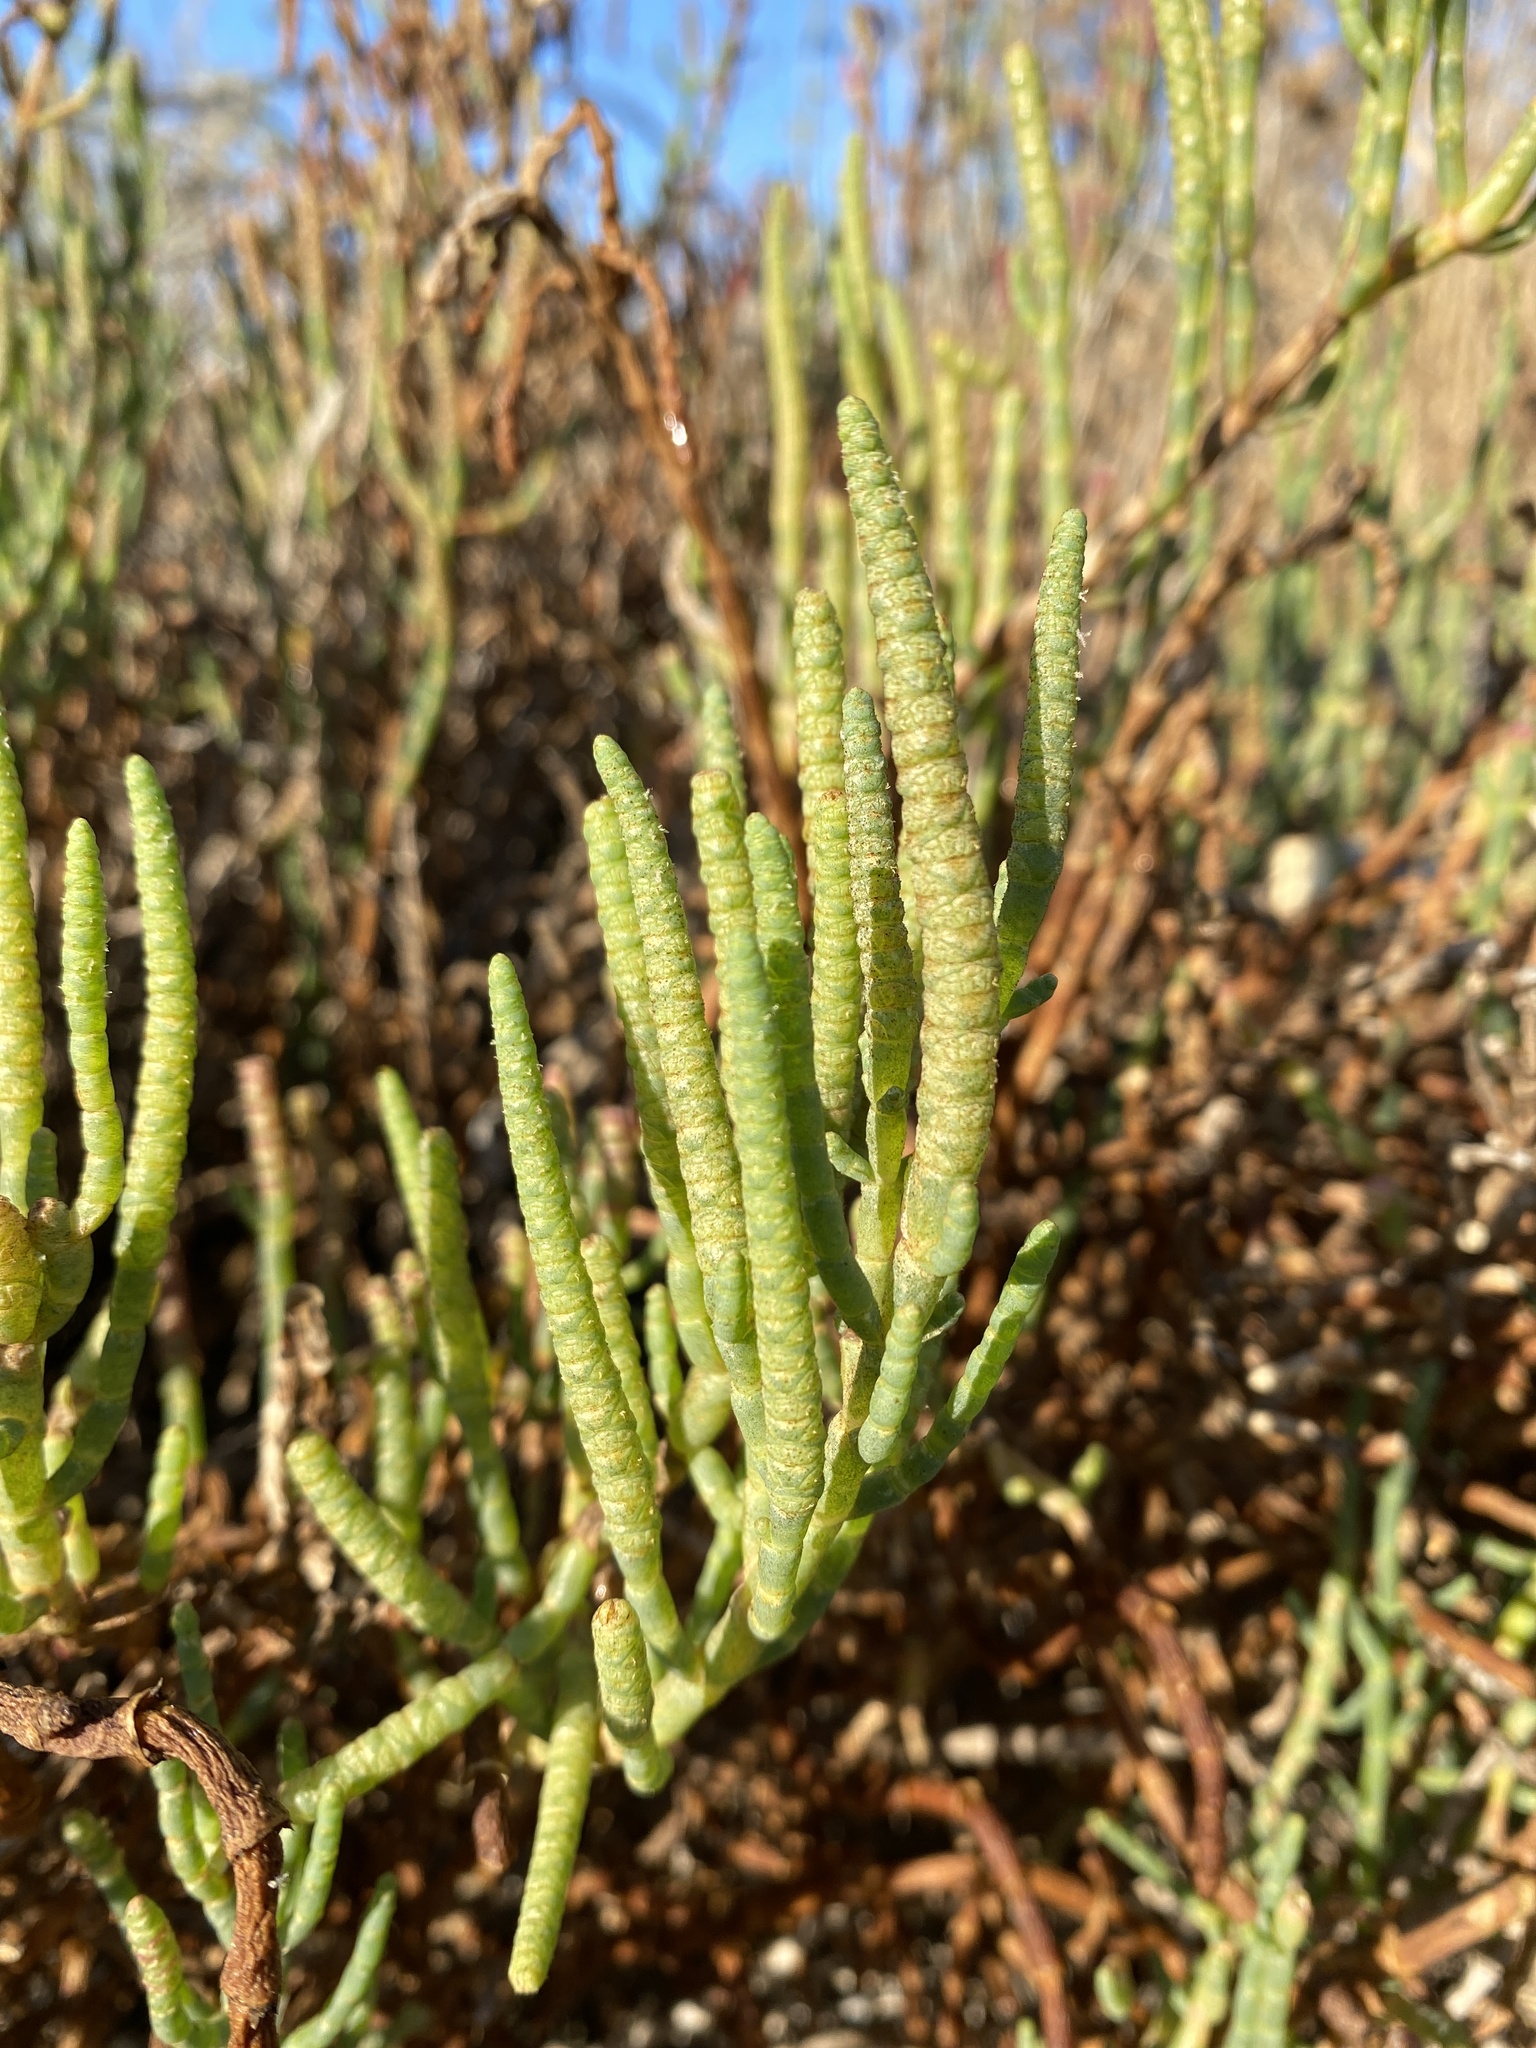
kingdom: Plantae
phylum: Tracheophyta
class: Magnoliopsida
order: Caryophyllales
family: Amaranthaceae
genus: Salicornia
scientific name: Salicornia pacifica
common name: Pacific glasswort
